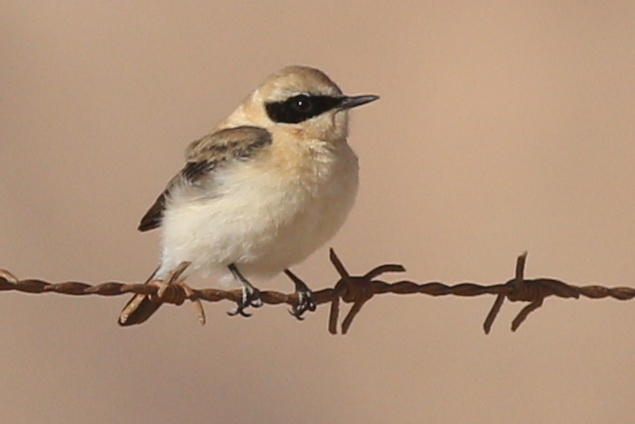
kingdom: Animalia
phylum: Chordata
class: Aves
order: Passeriformes
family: Muscicapidae
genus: Oenanthe
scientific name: Oenanthe hispanica
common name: Black-eared wheatear
